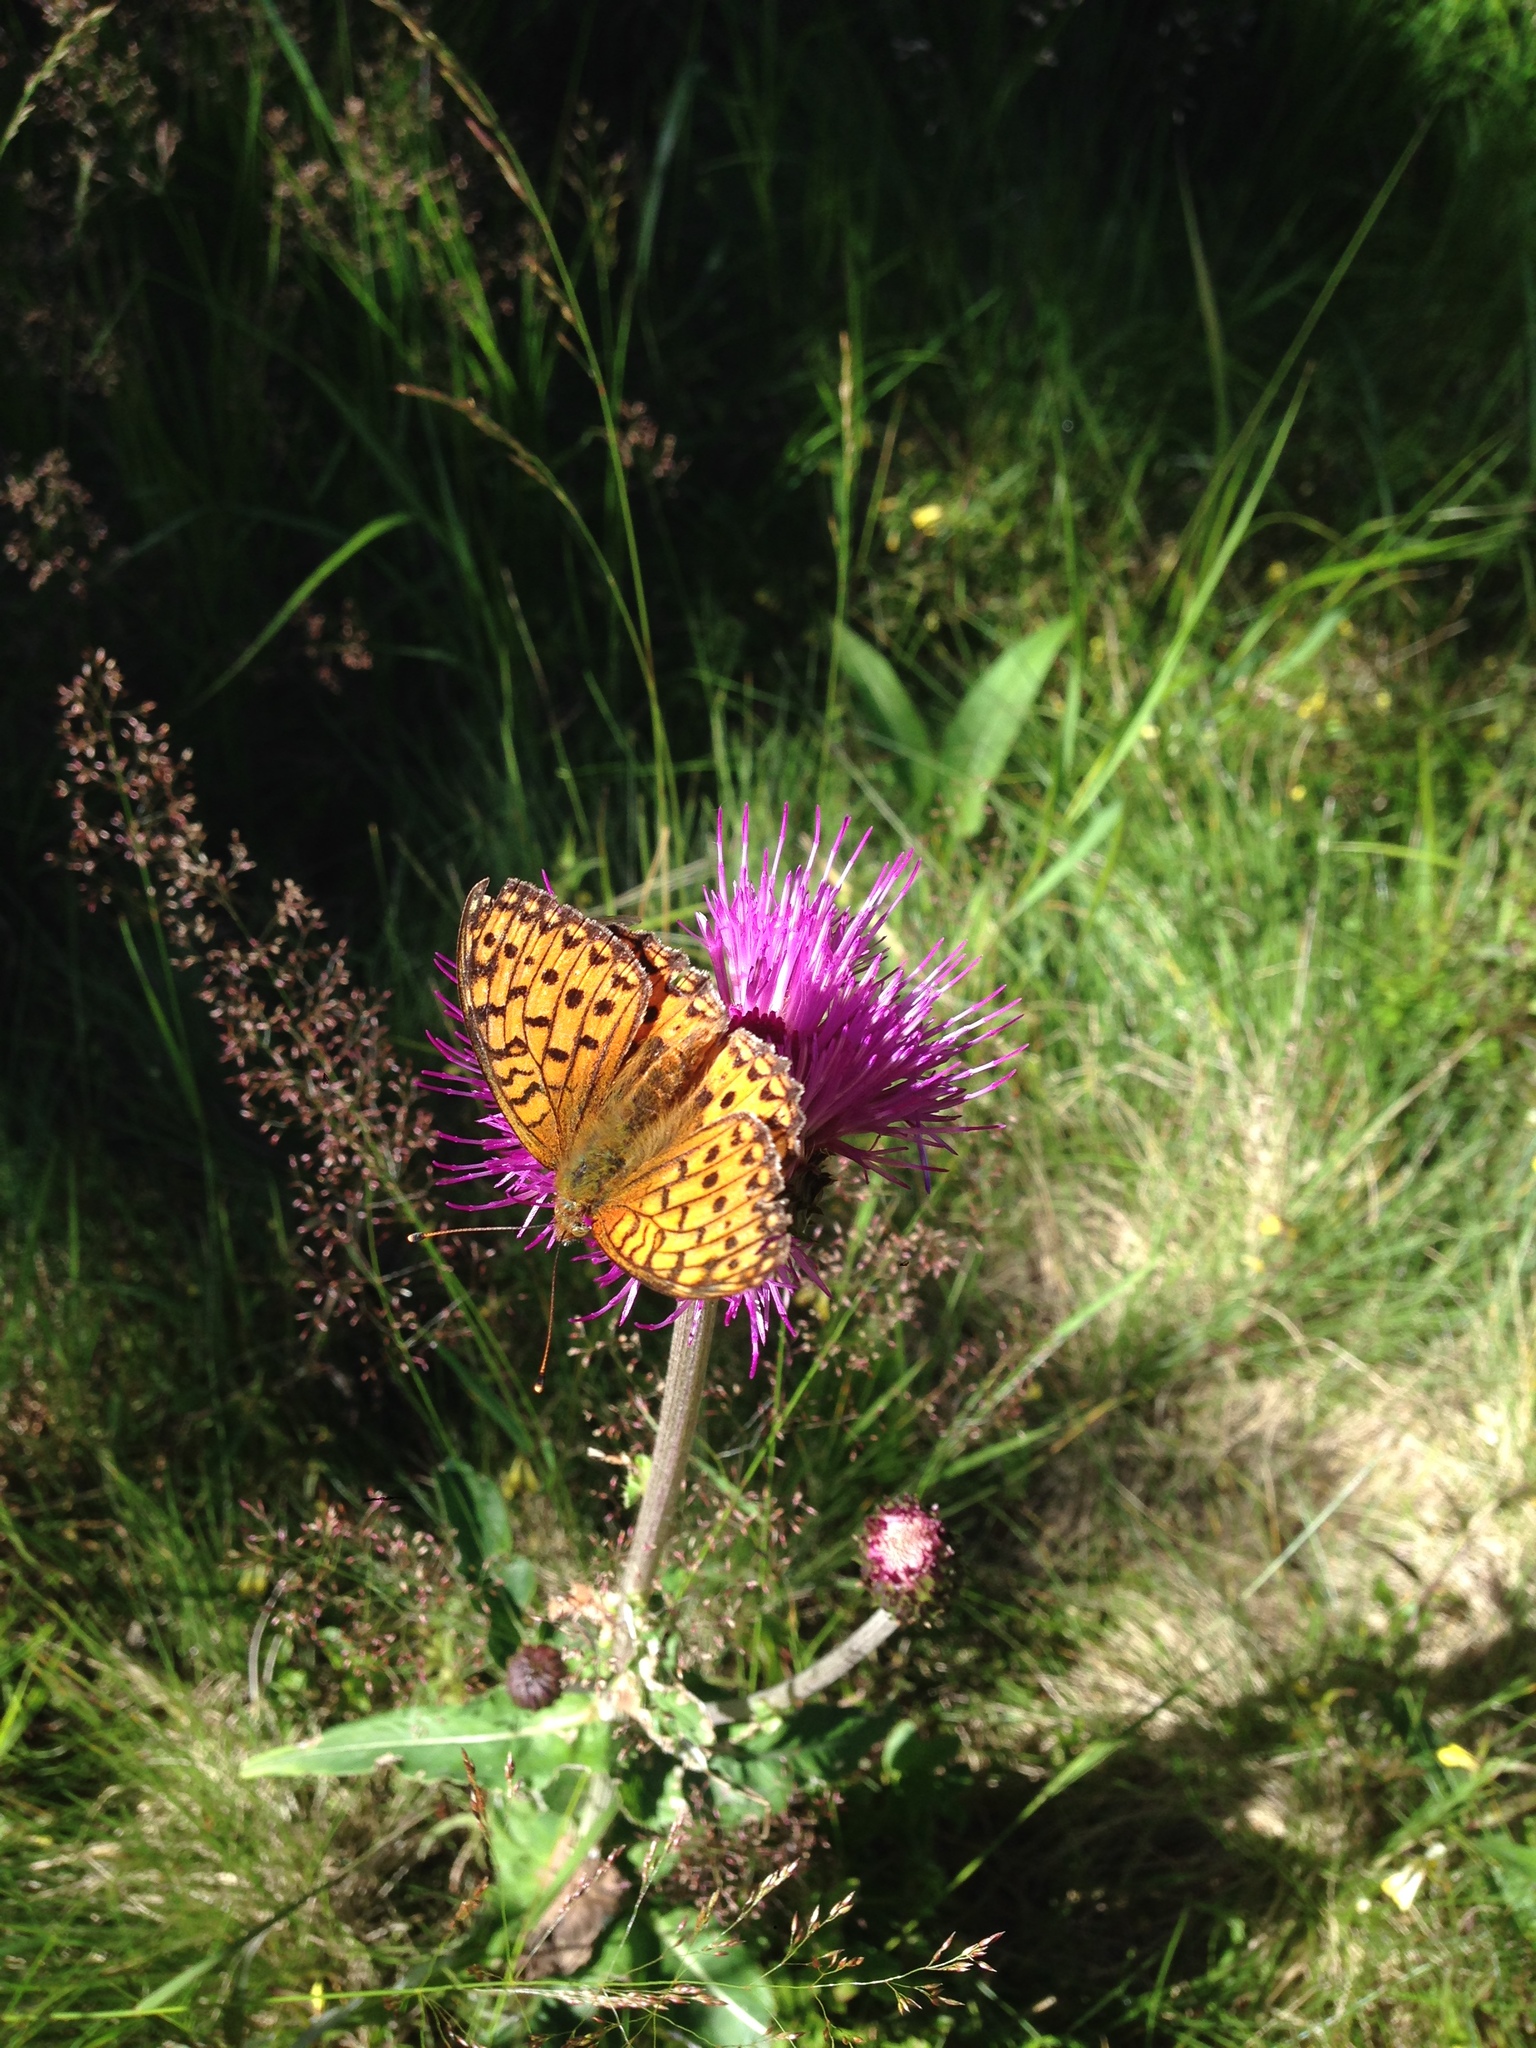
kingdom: Animalia
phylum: Arthropoda
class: Insecta
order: Lepidoptera
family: Nymphalidae
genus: Speyeria
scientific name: Speyeria aglaja
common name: Dark green fritillary
